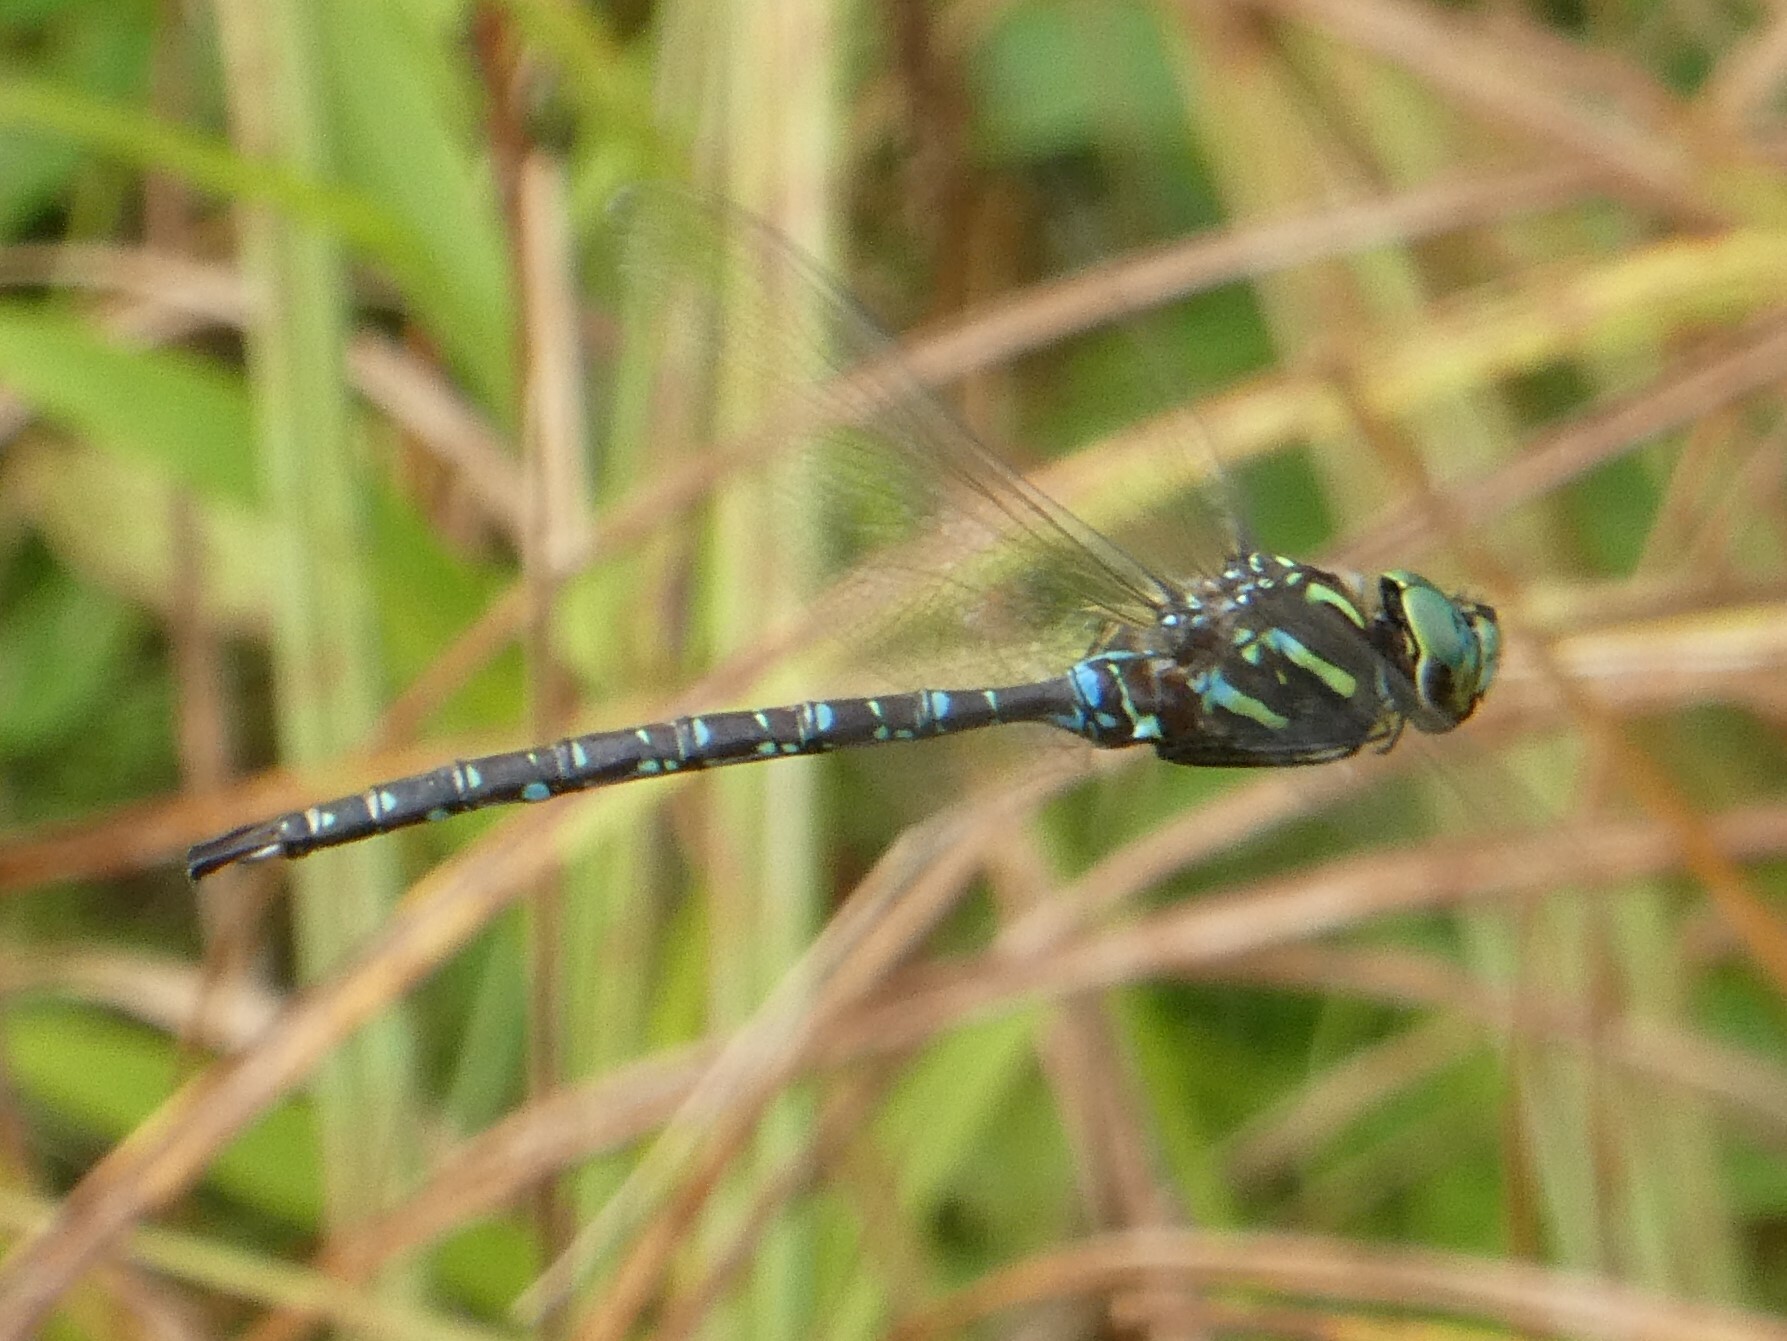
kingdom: Animalia
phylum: Arthropoda
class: Insecta
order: Odonata
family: Aeshnidae
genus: Aeshna
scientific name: Aeshna umbrosa
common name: Shadow darner
